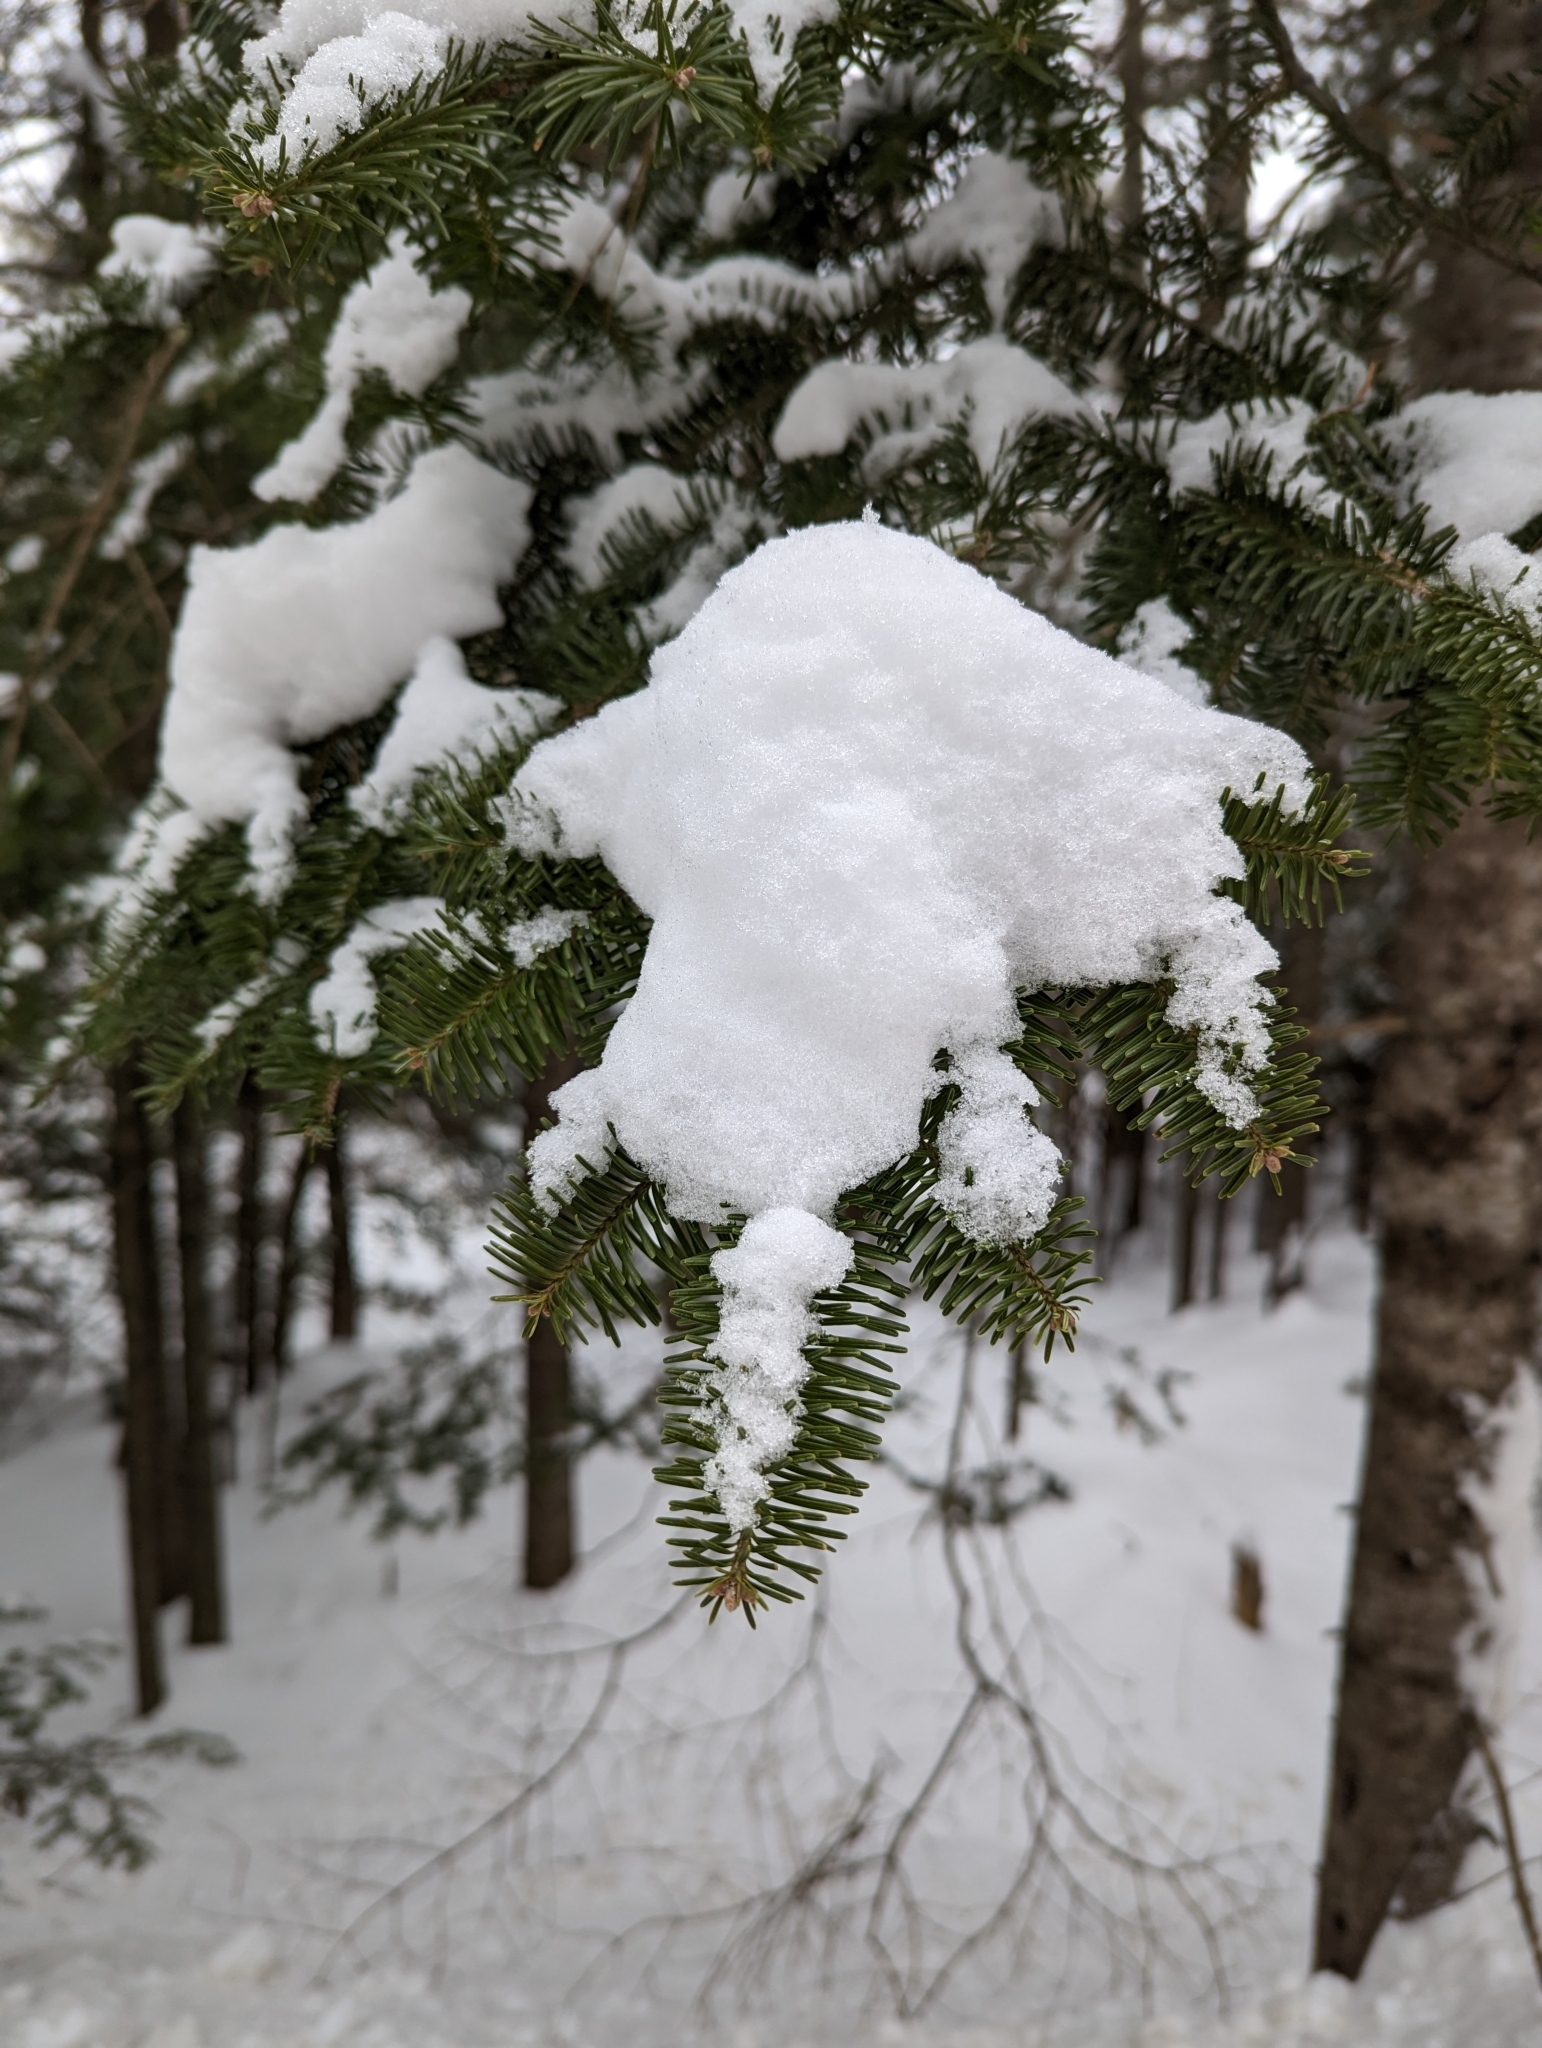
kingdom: Plantae
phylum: Tracheophyta
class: Pinopsida
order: Pinales
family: Pinaceae
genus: Abies
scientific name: Abies balsamea
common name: Balsam fir
